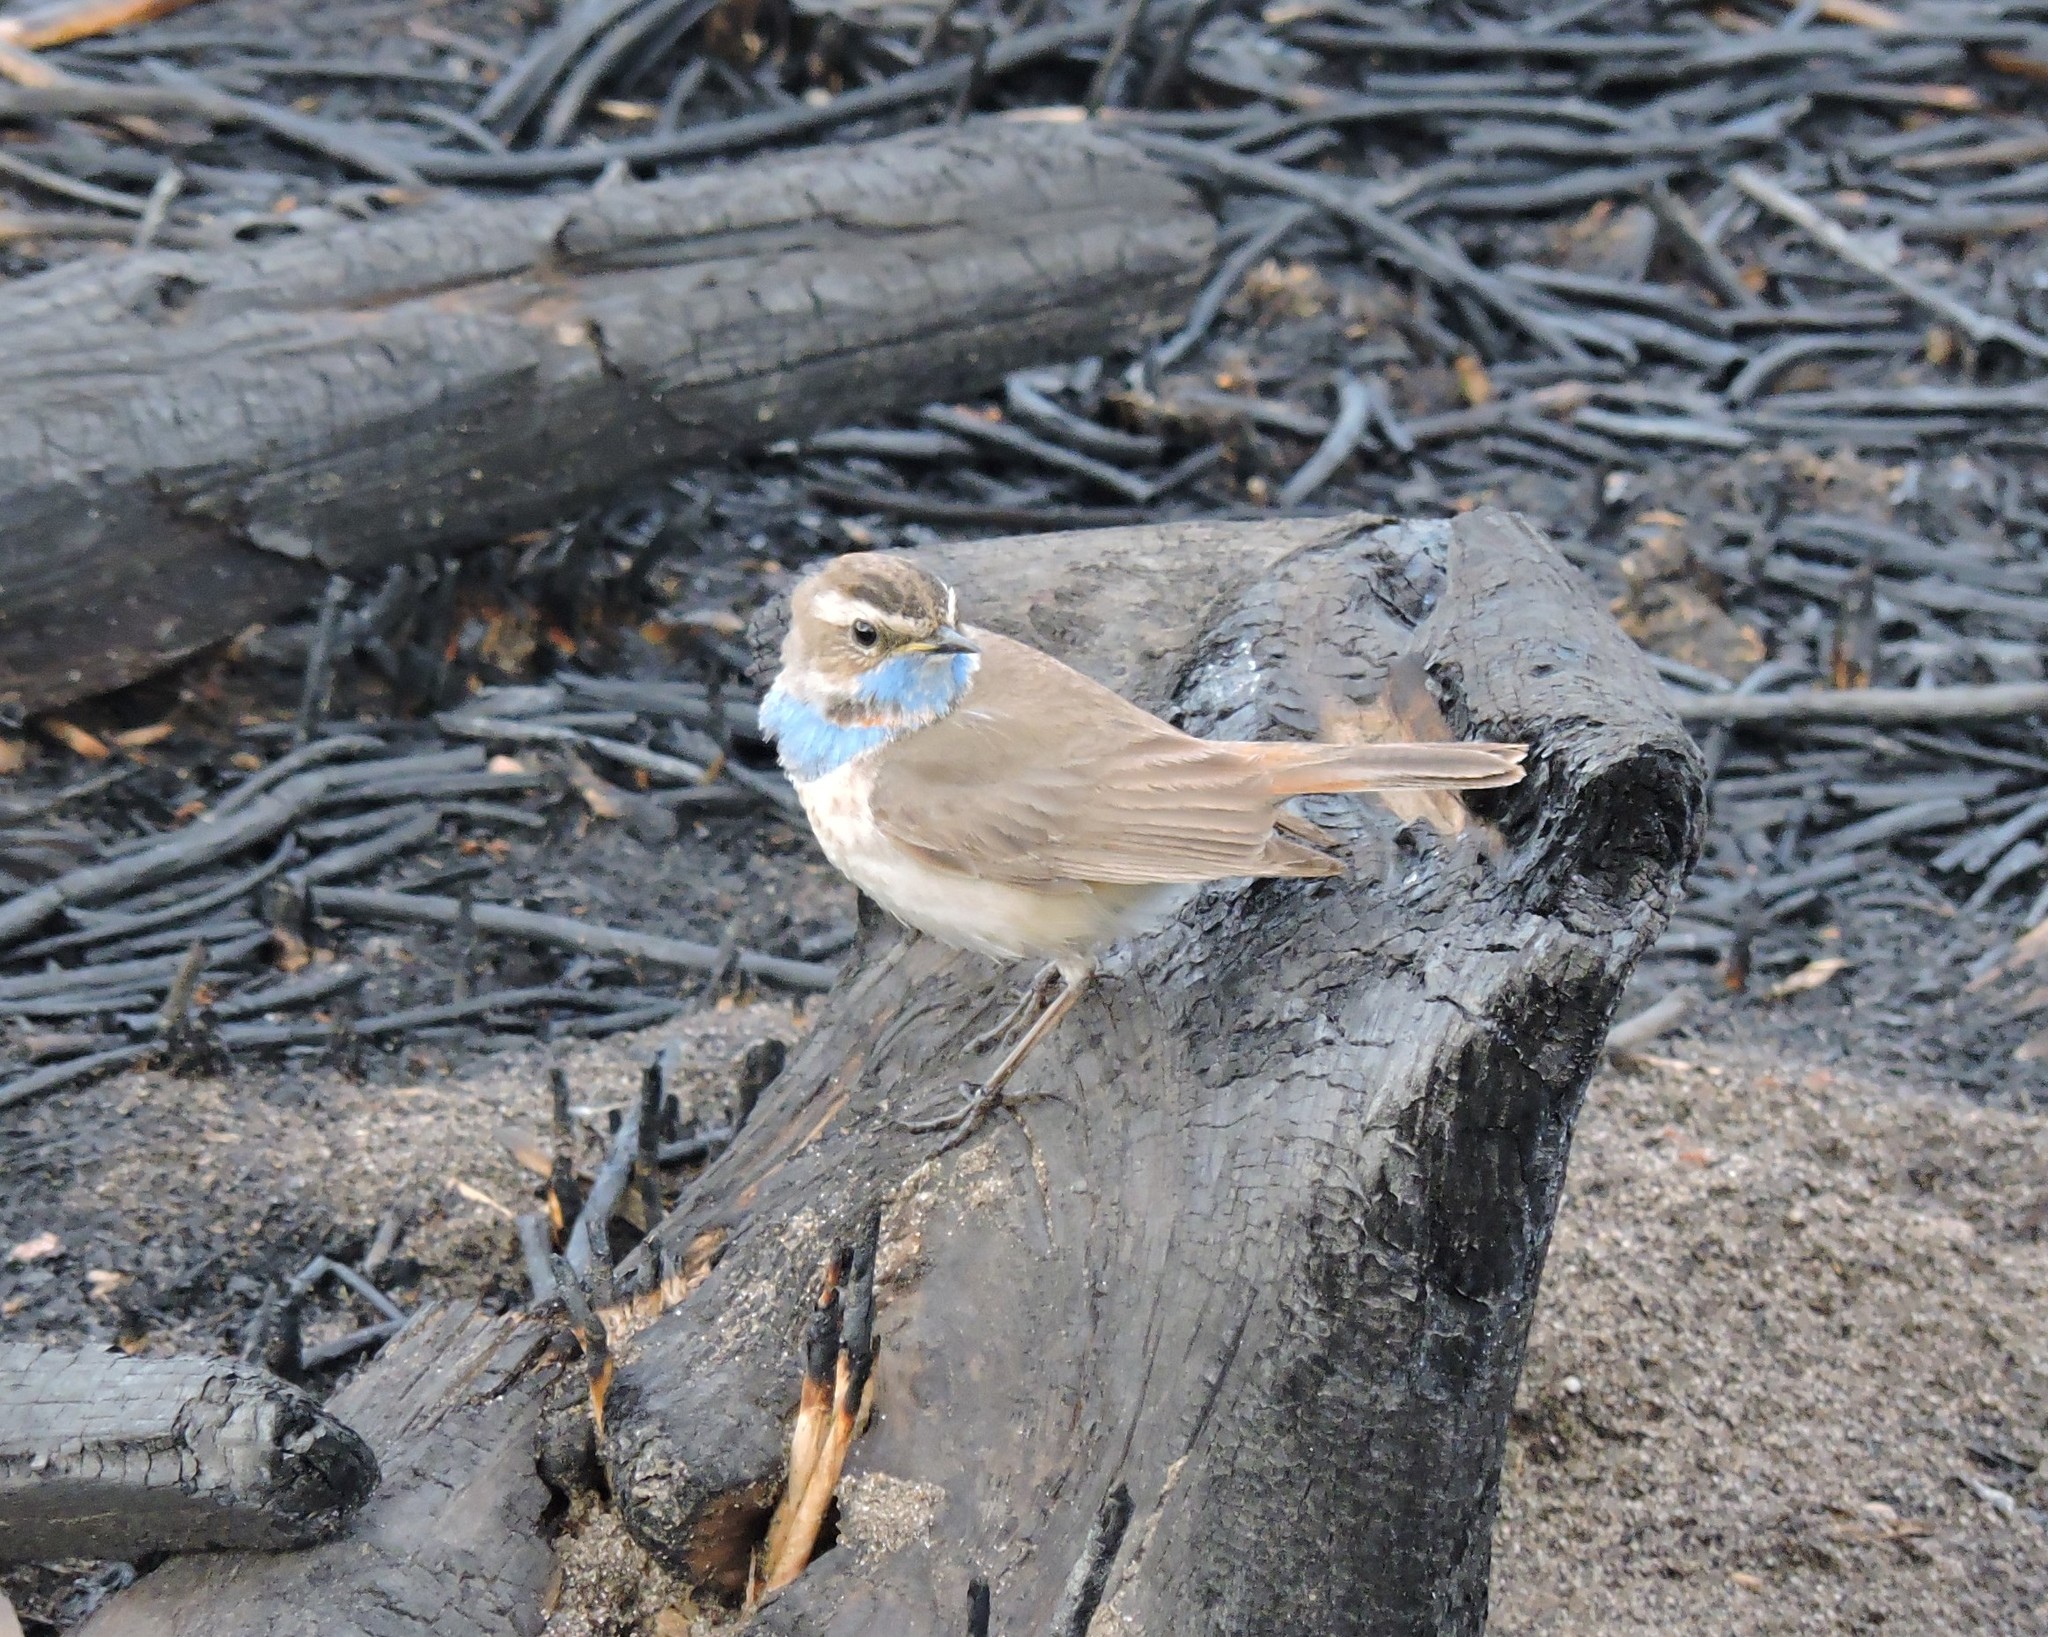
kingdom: Animalia
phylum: Chordata
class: Aves
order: Passeriformes
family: Muscicapidae
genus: Luscinia
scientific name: Luscinia svecica
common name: Bluethroat
